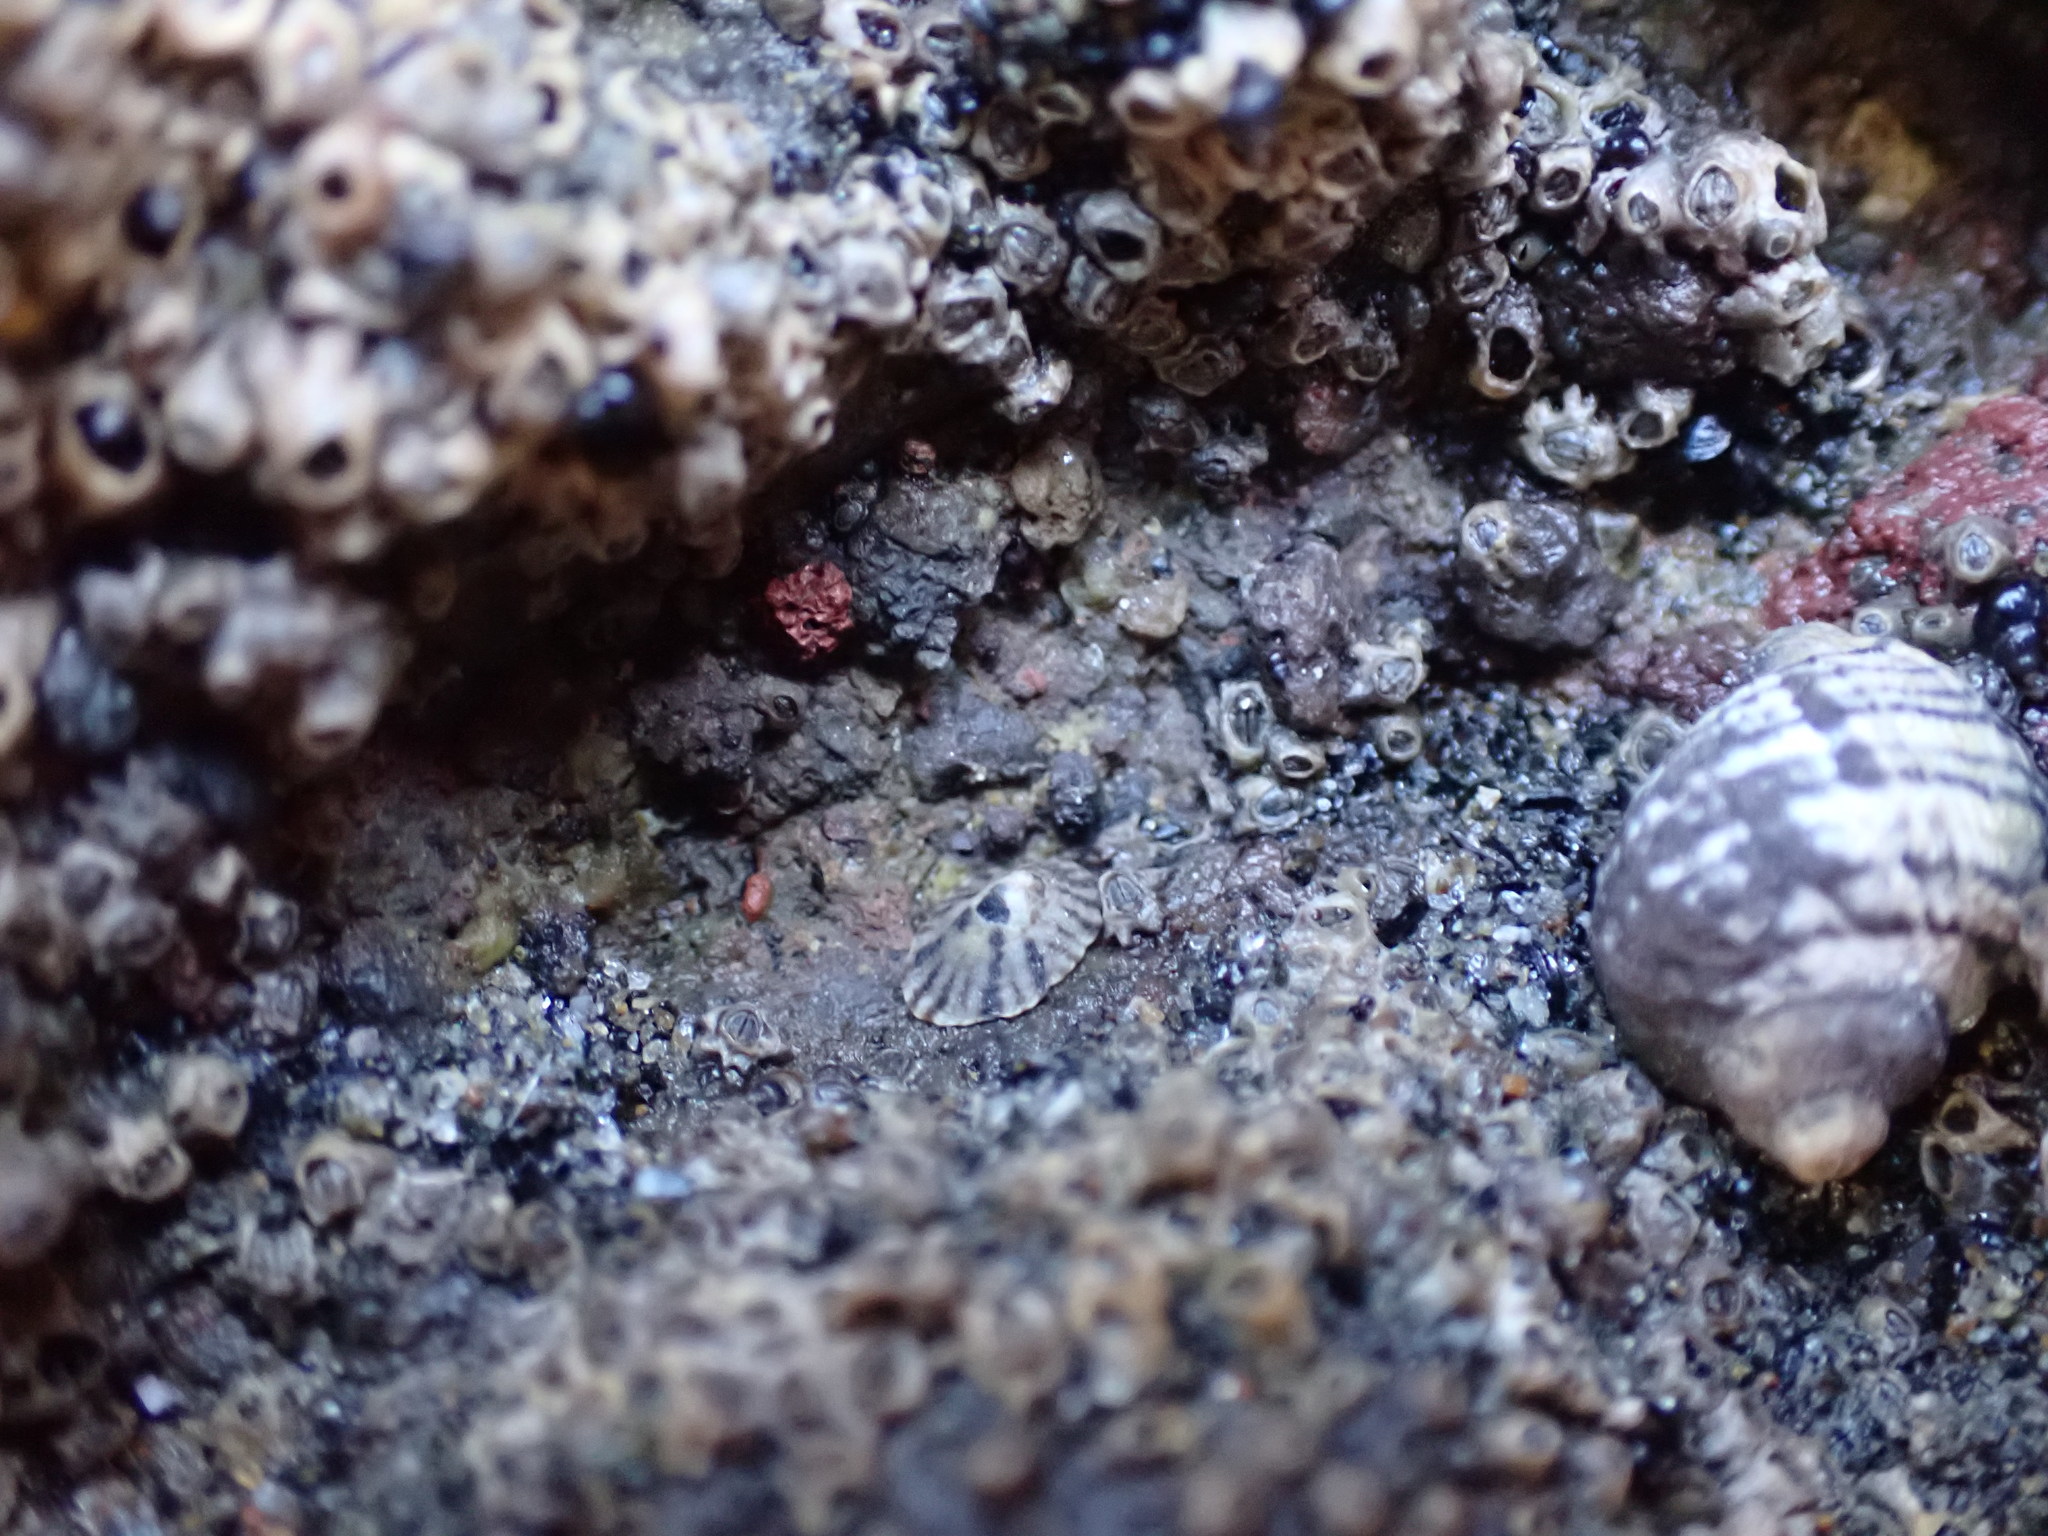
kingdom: Animalia
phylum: Mollusca
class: Gastropoda
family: Lottiidae
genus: Notoacmea
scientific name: Notoacmea parviconoidea
